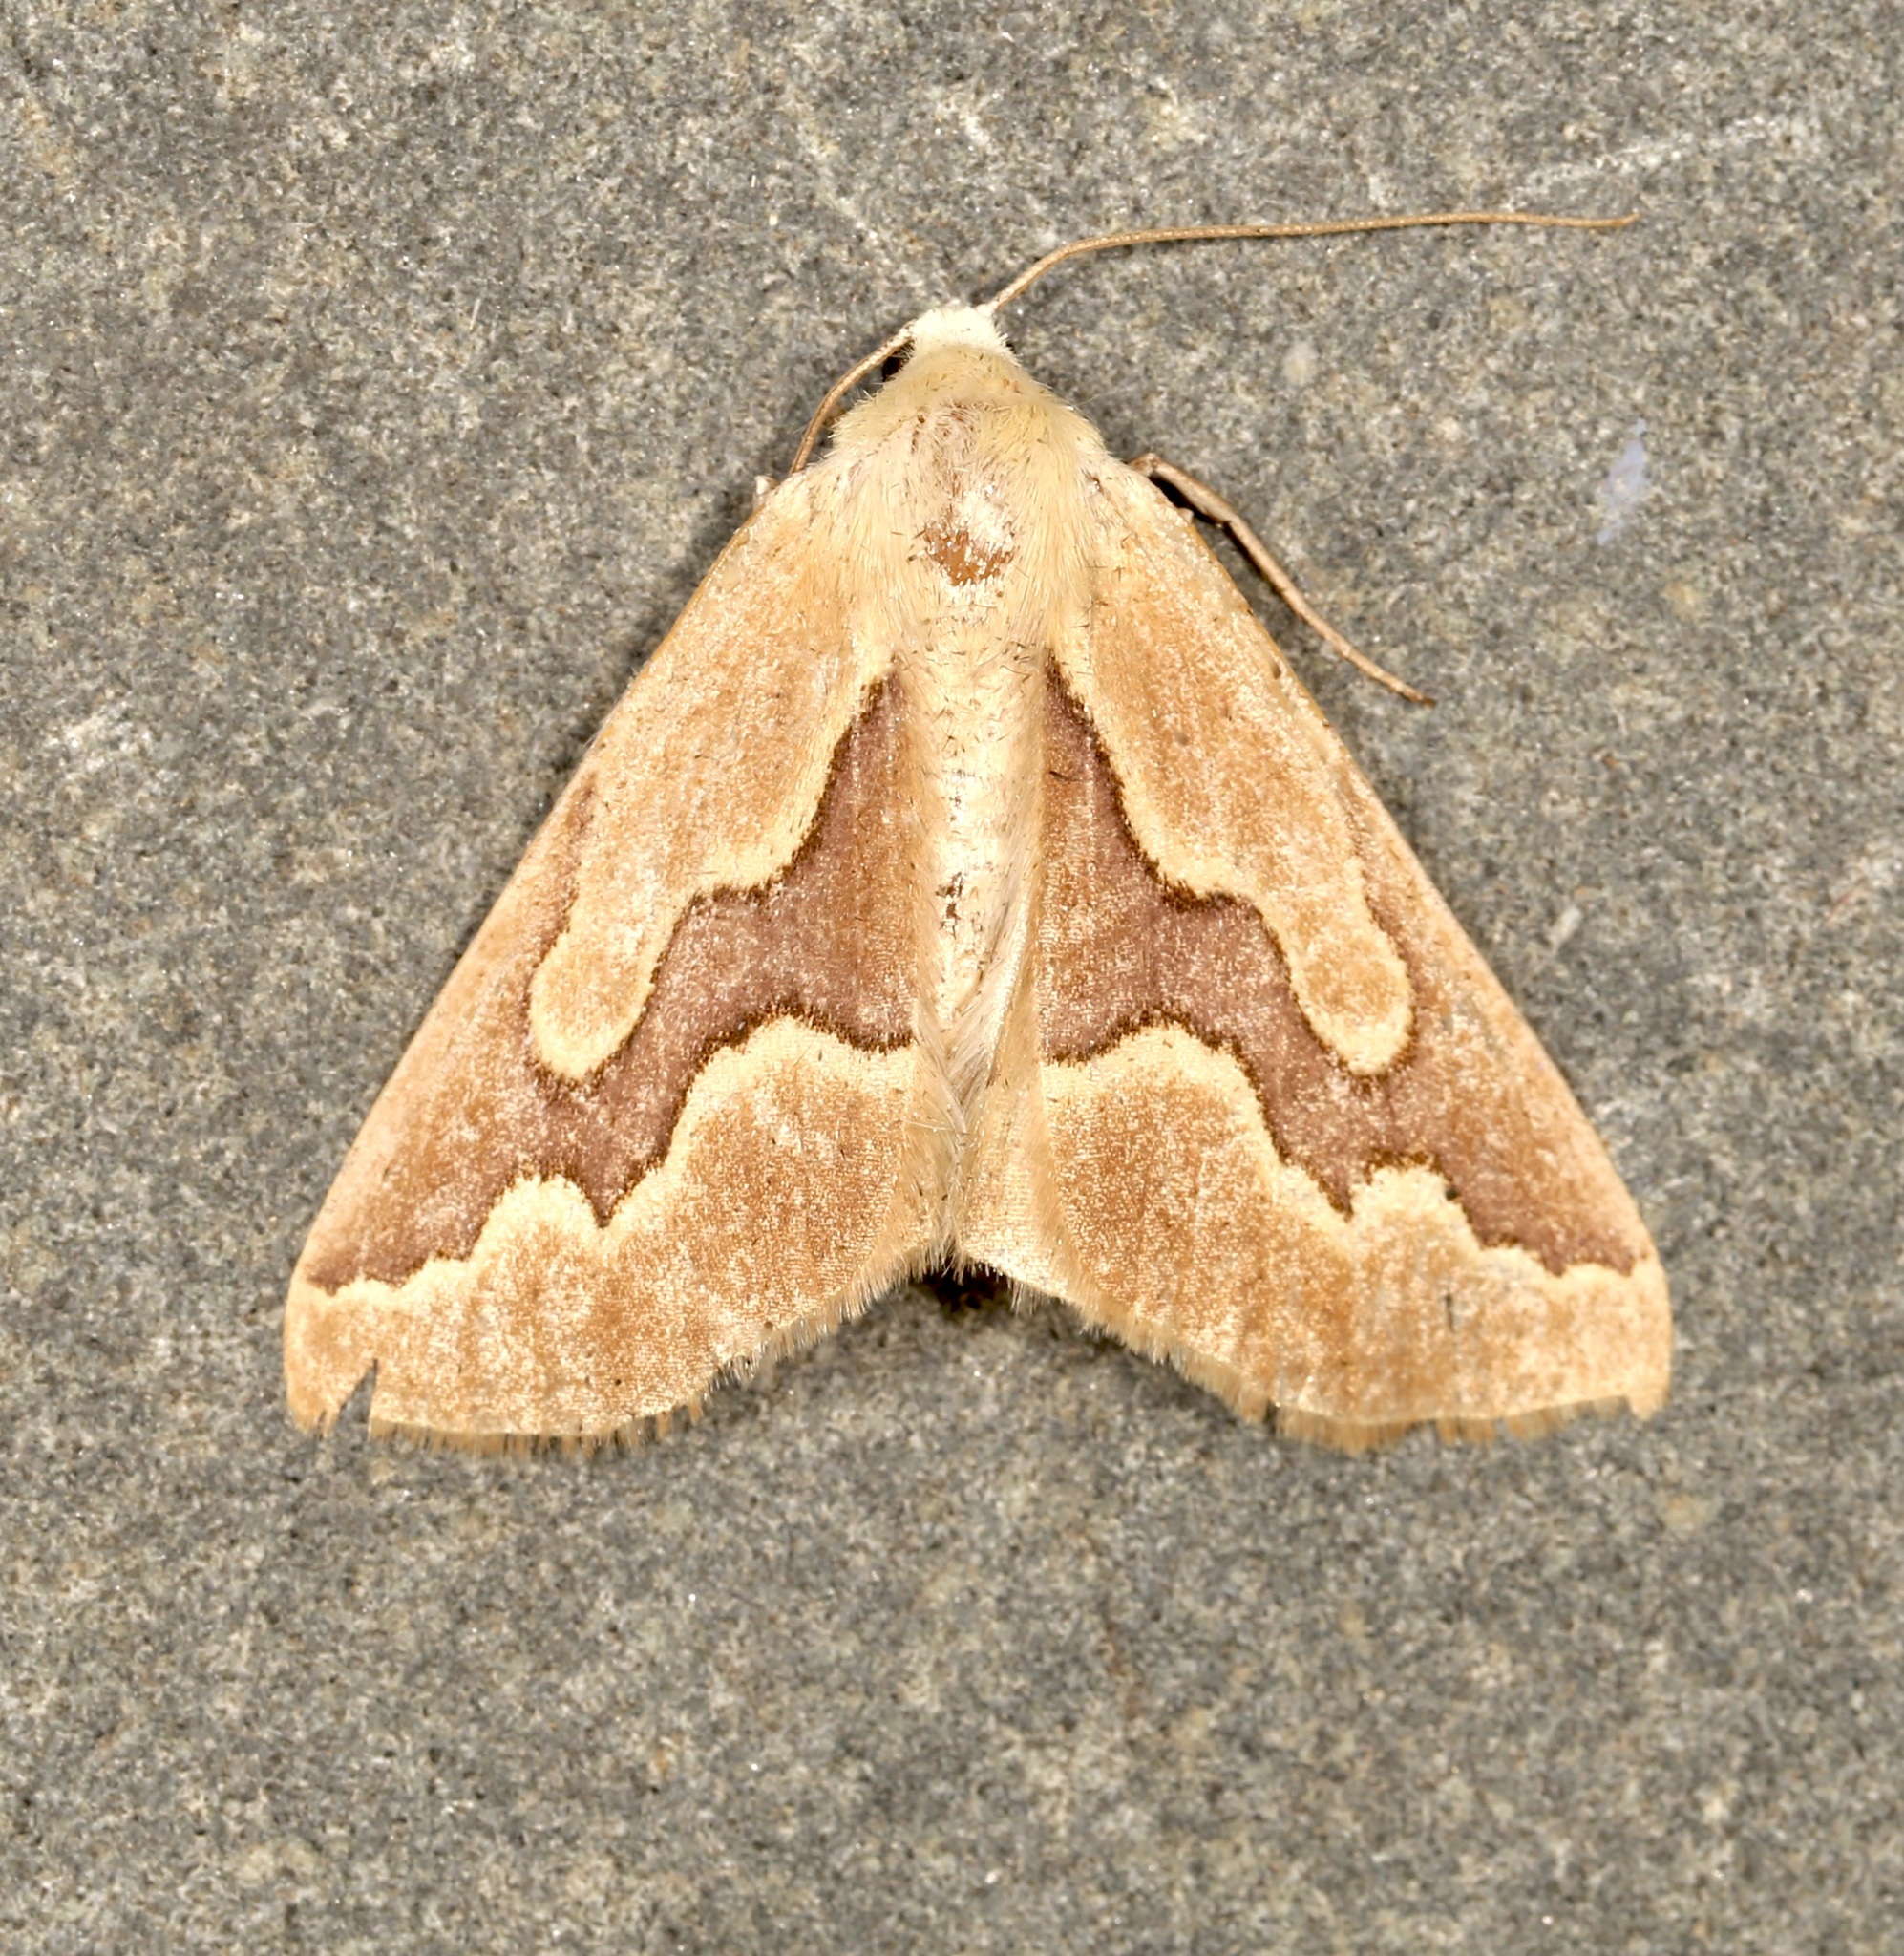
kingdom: Animalia
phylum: Arthropoda
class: Insecta
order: Lepidoptera
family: Geometridae
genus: Sabulodes
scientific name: Sabulodes edwardsata
